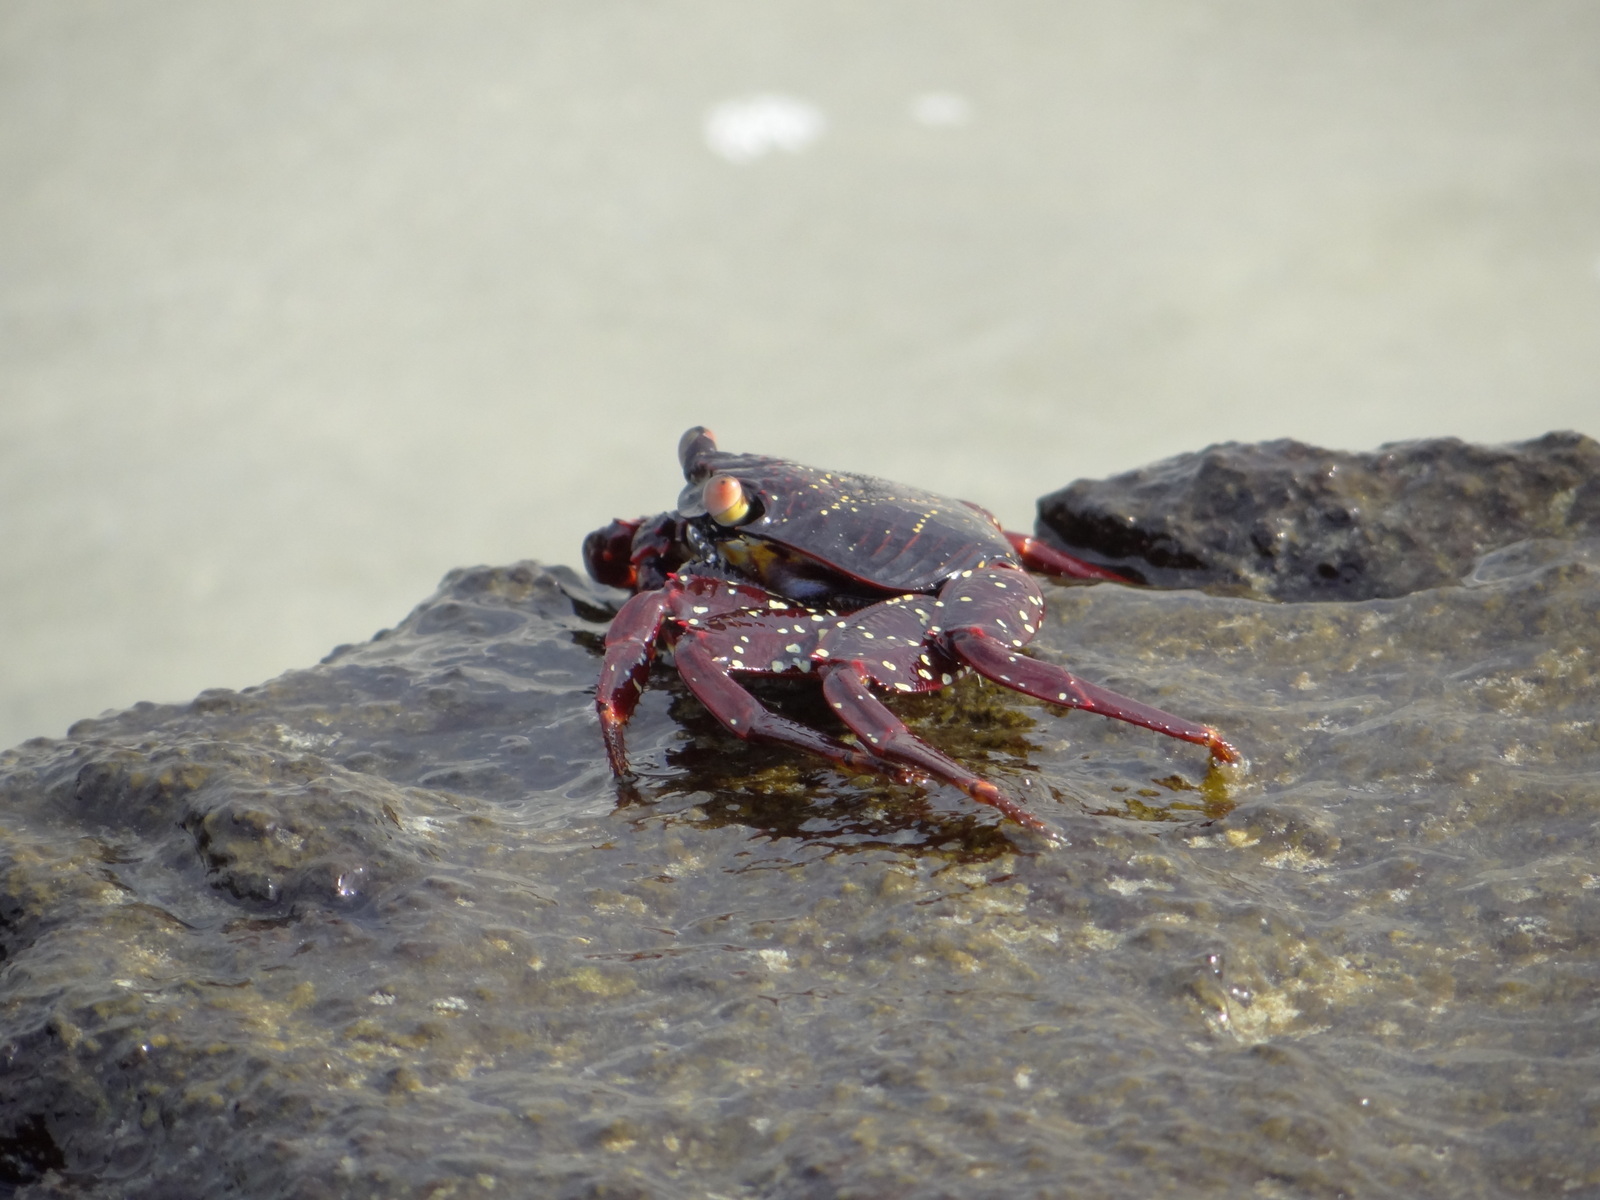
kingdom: Animalia
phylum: Arthropoda
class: Malacostraca
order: Decapoda
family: Grapsidae
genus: Grapsus
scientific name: Grapsus grapsus
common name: Sally lightfoot
